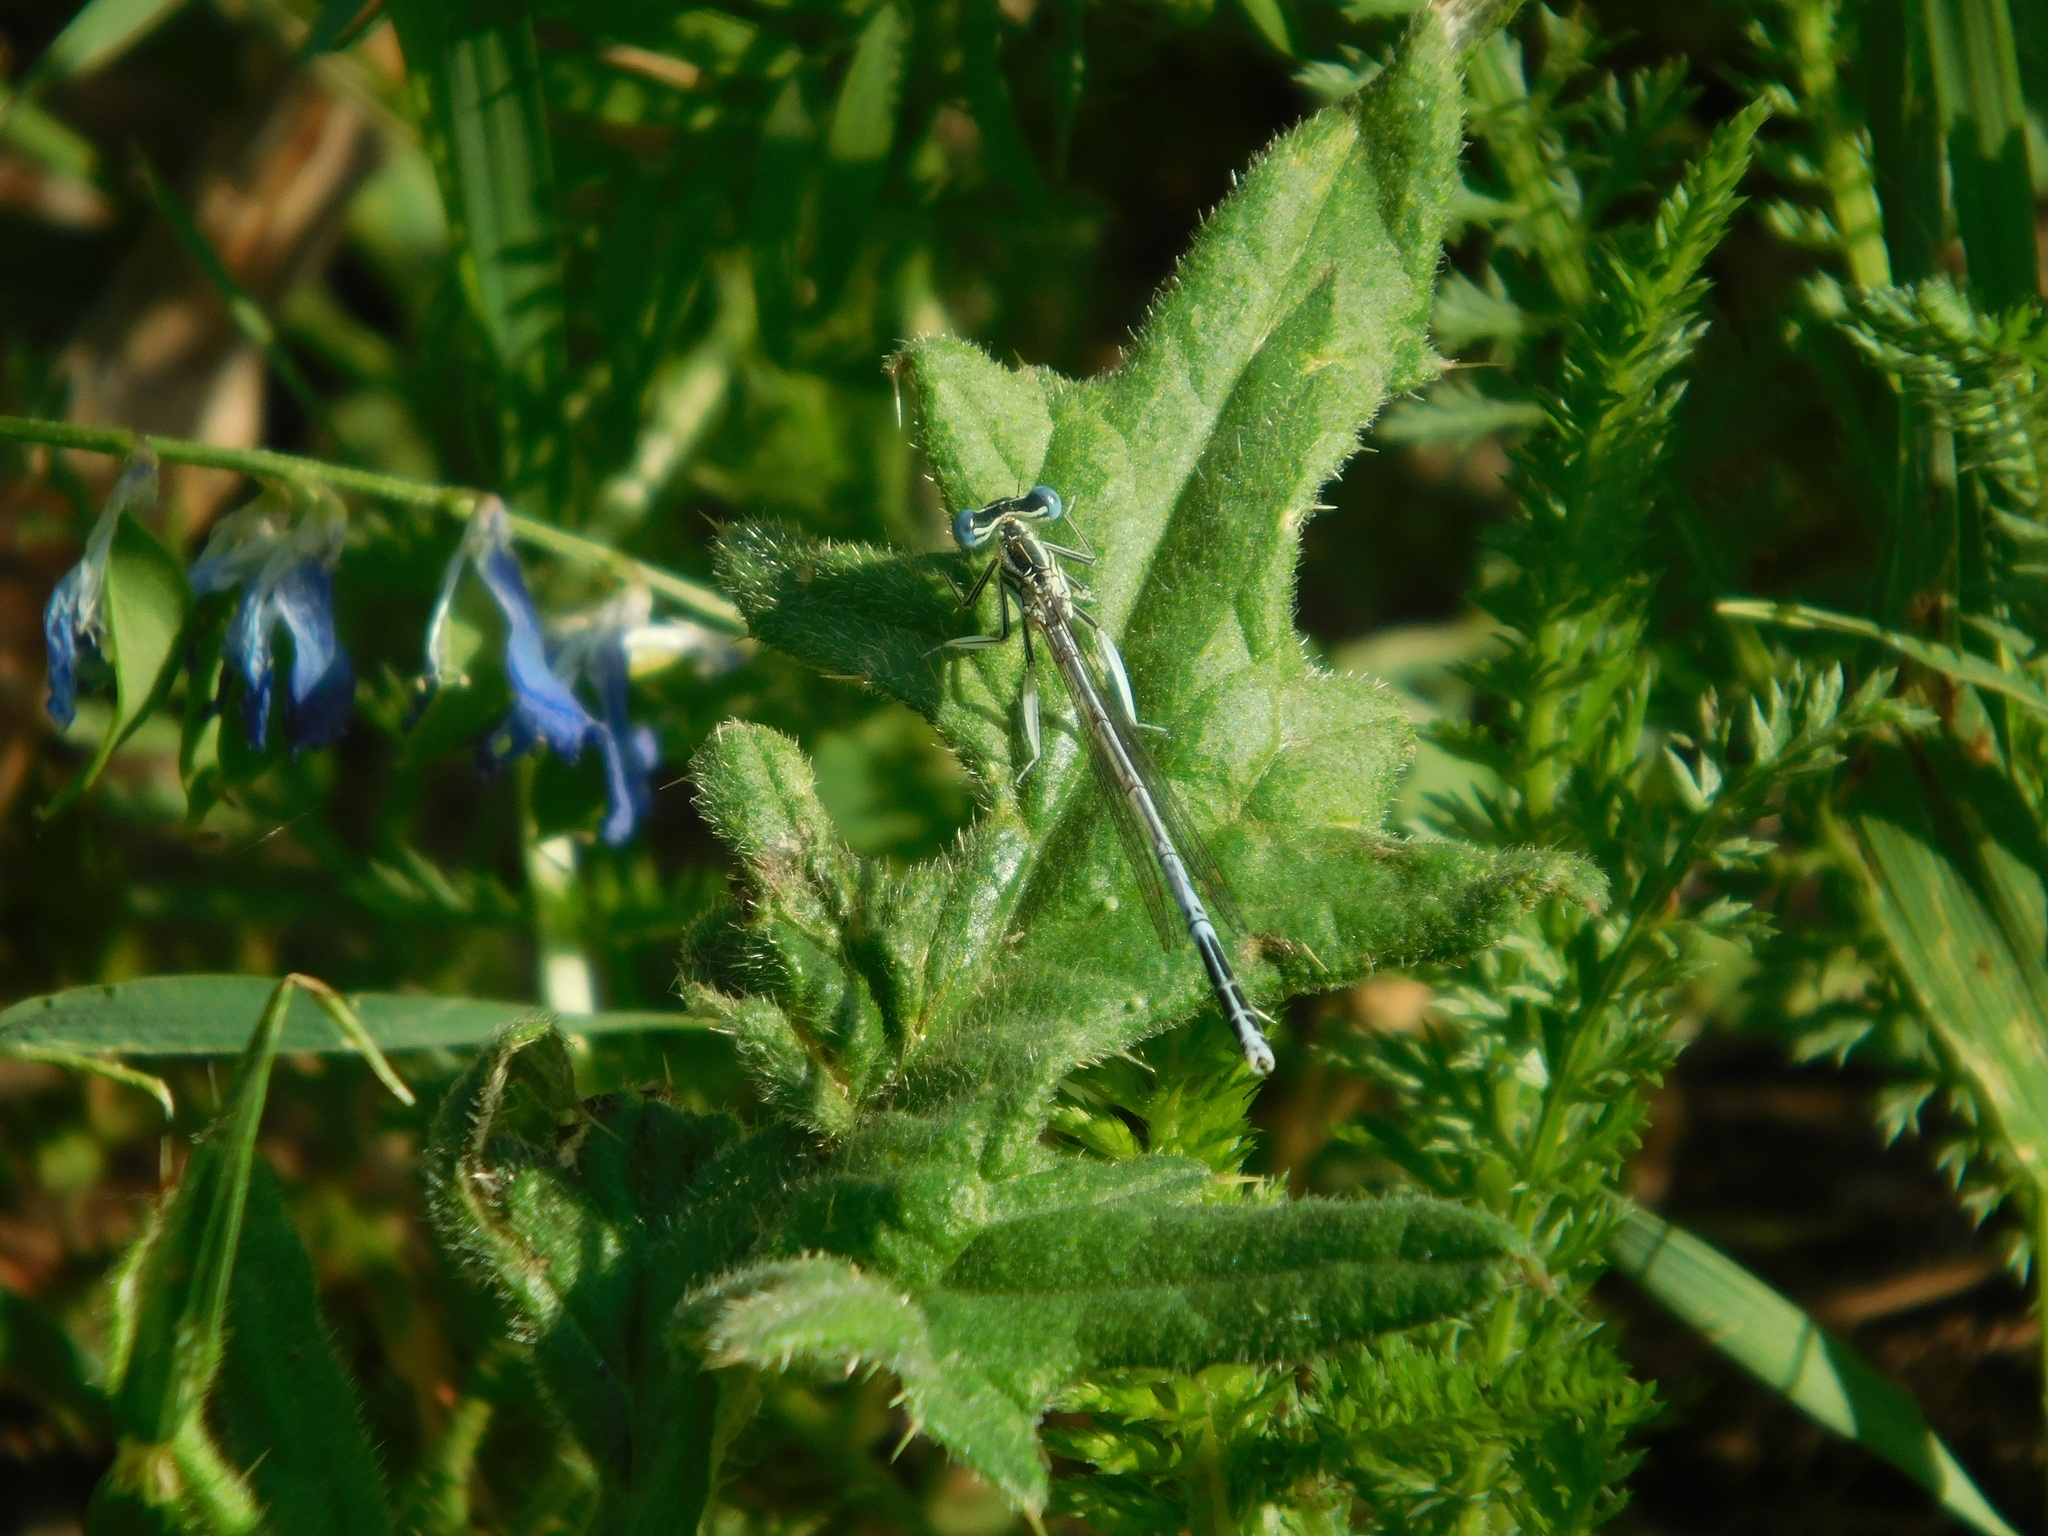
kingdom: Animalia
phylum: Arthropoda
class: Insecta
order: Odonata
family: Platycnemididae
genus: Platycnemis
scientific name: Platycnemis pennipes
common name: White-legged damselfly
